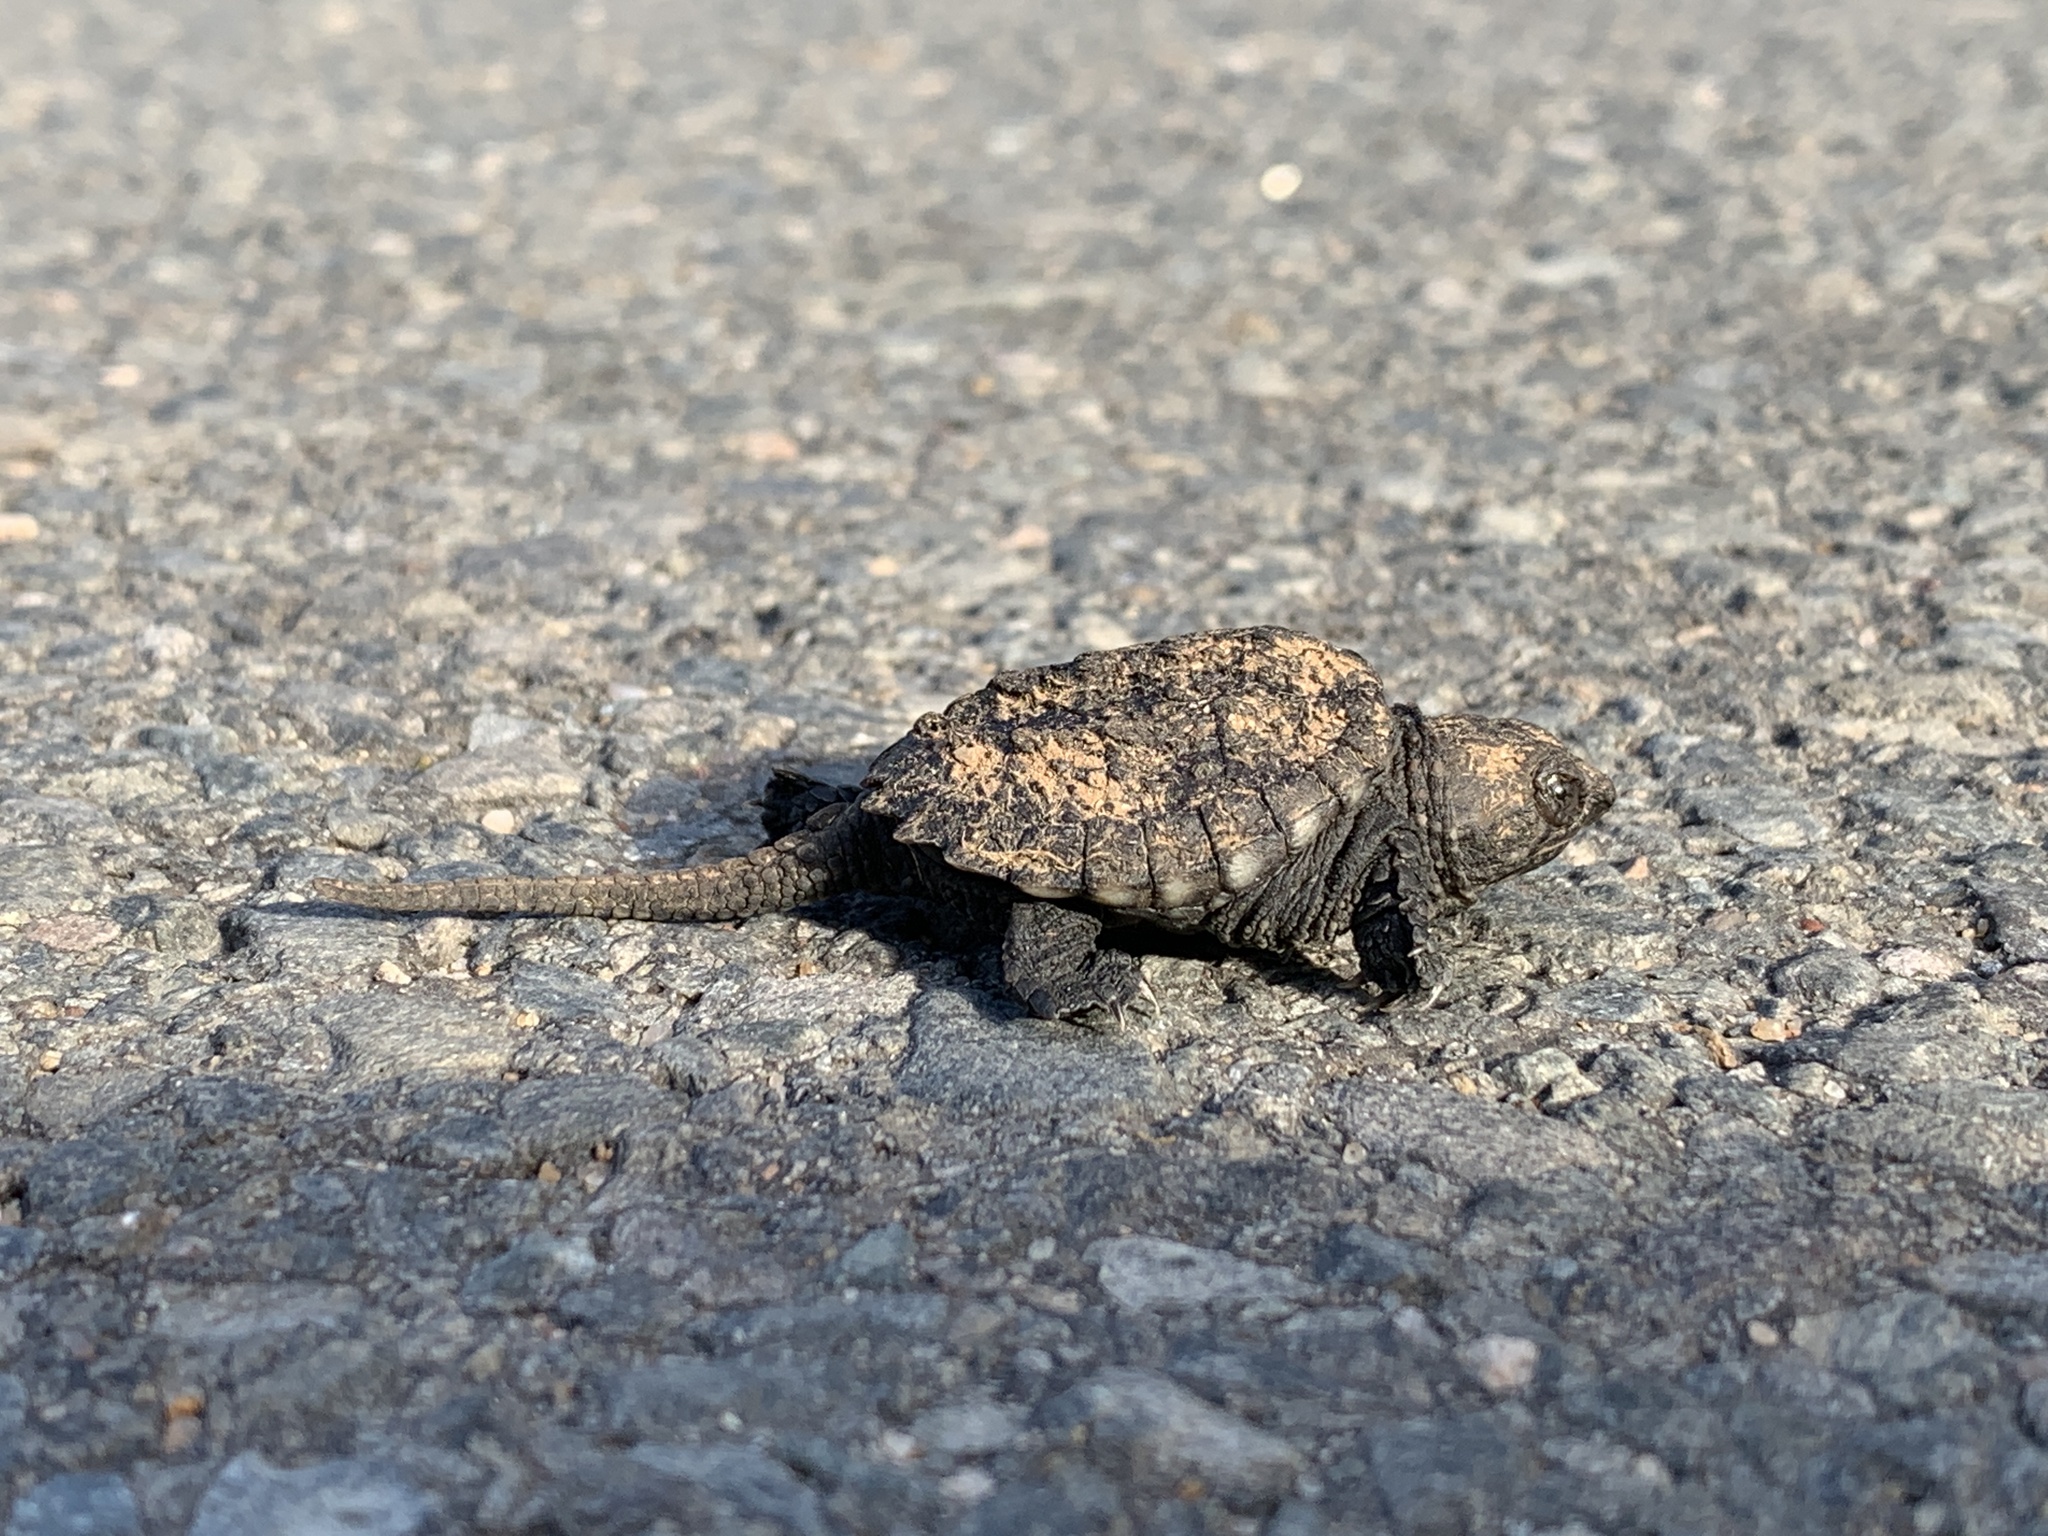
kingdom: Animalia
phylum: Chordata
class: Testudines
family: Chelydridae
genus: Chelydra
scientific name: Chelydra serpentina
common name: Common snapping turtle
